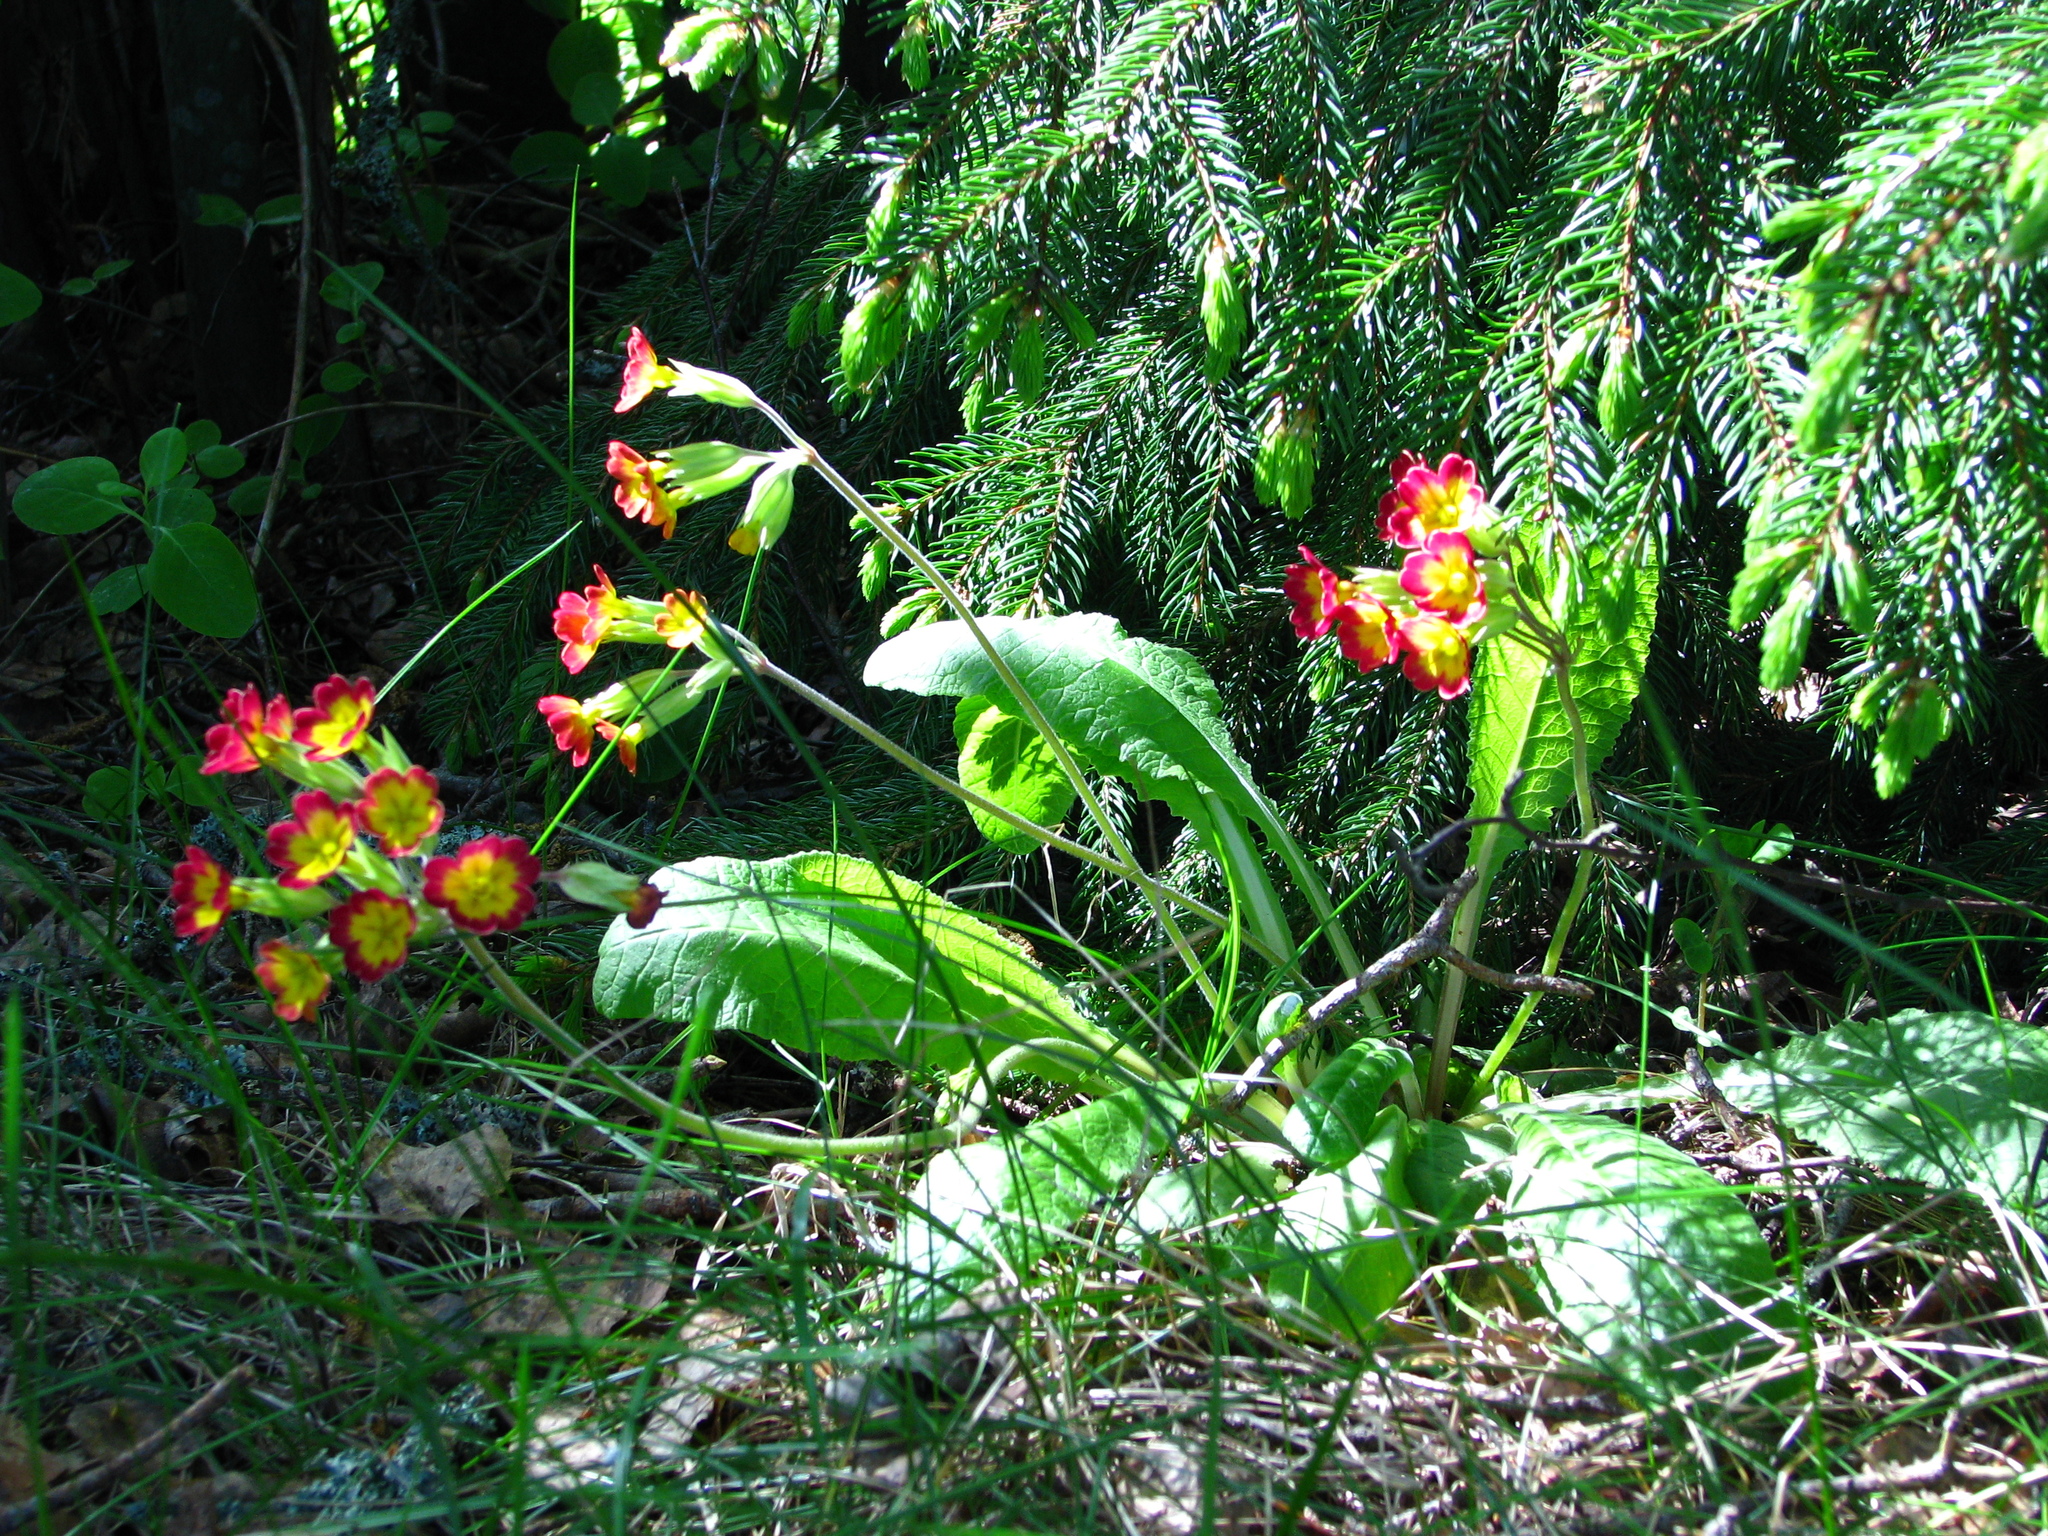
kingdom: Plantae
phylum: Tracheophyta
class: Magnoliopsida
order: Ericales
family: Primulaceae
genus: Primula
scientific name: Primula veris
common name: Cowslip
